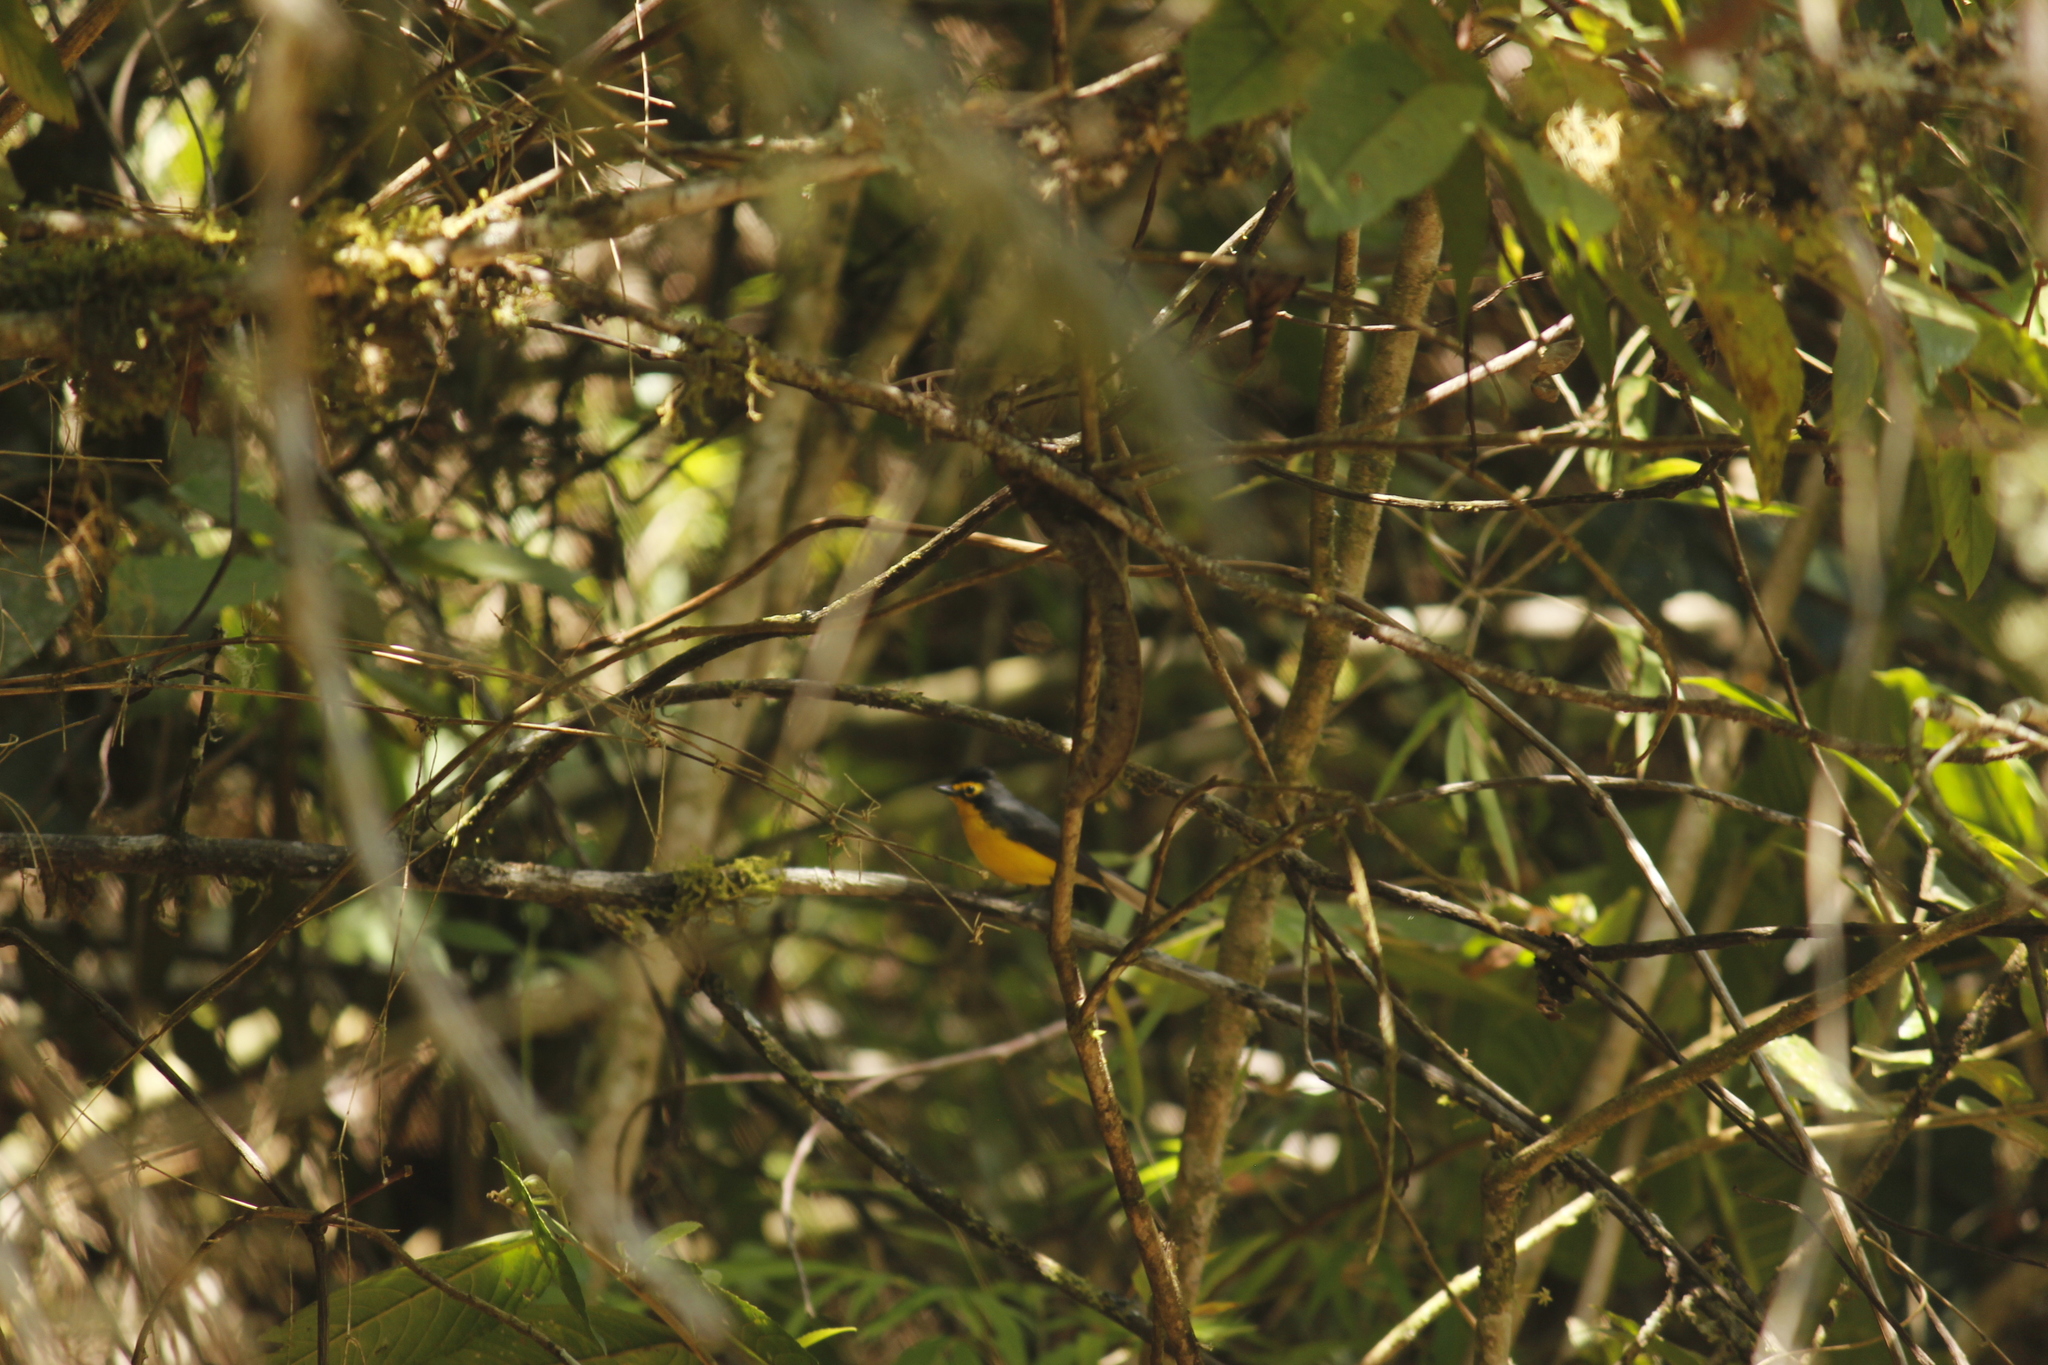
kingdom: Animalia
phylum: Chordata
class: Aves
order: Passeriformes
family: Parulidae
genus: Myioborus
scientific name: Myioborus melanocephalus
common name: Spectacled whitestart
